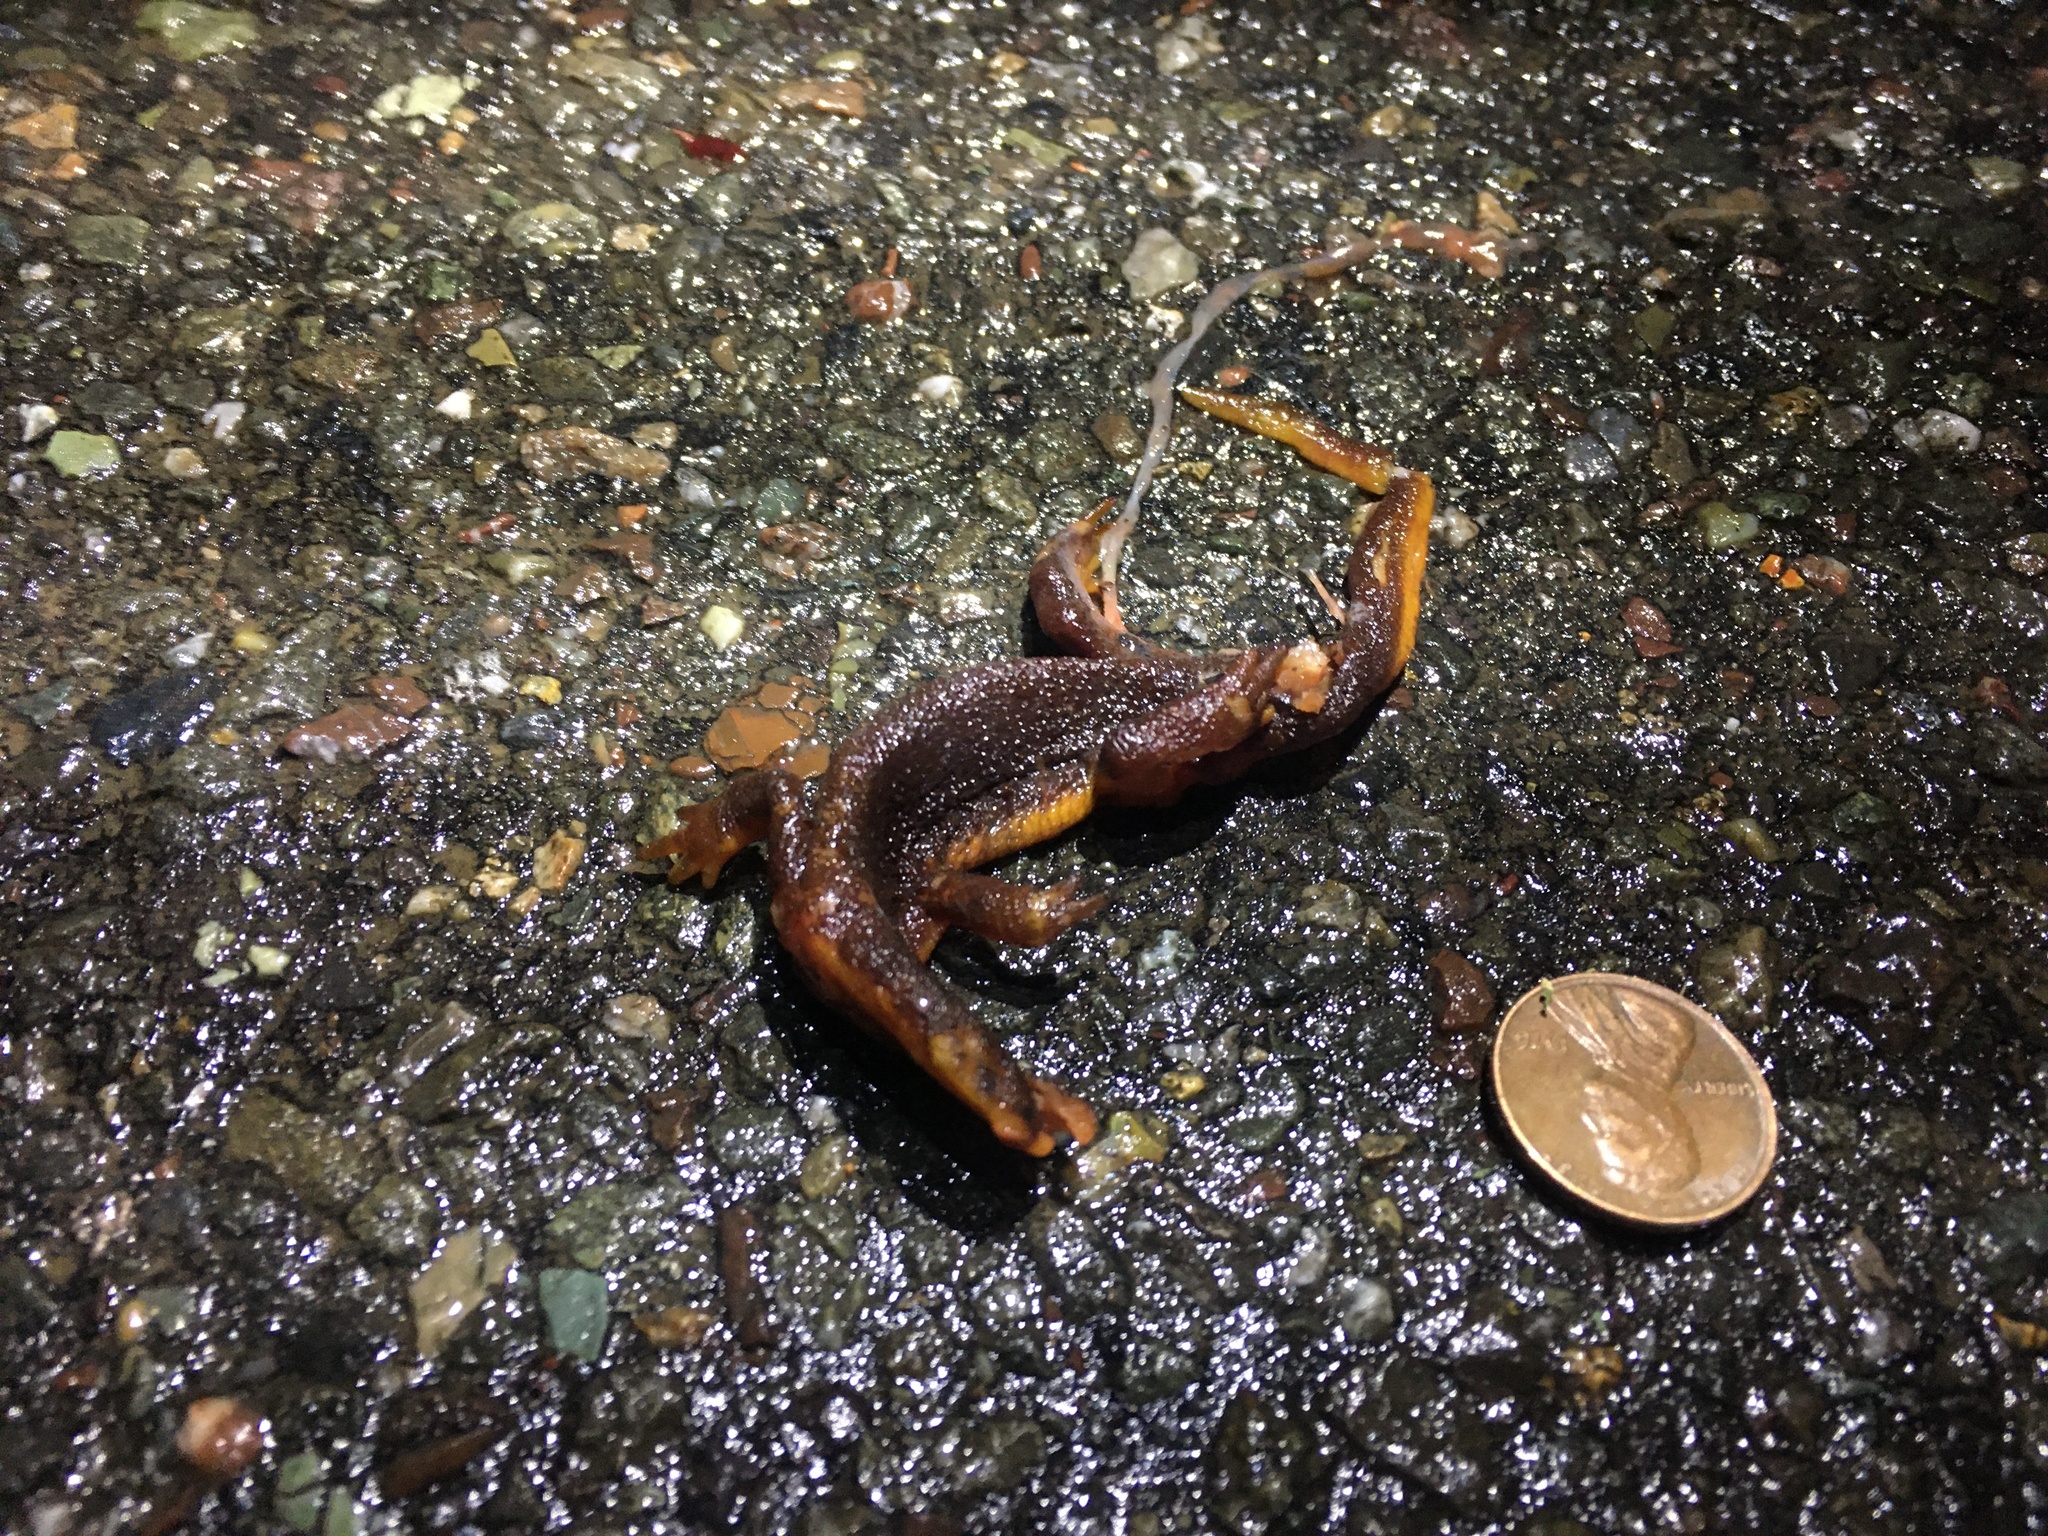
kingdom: Animalia
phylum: Chordata
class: Amphibia
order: Caudata
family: Salamandridae
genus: Taricha
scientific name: Taricha
